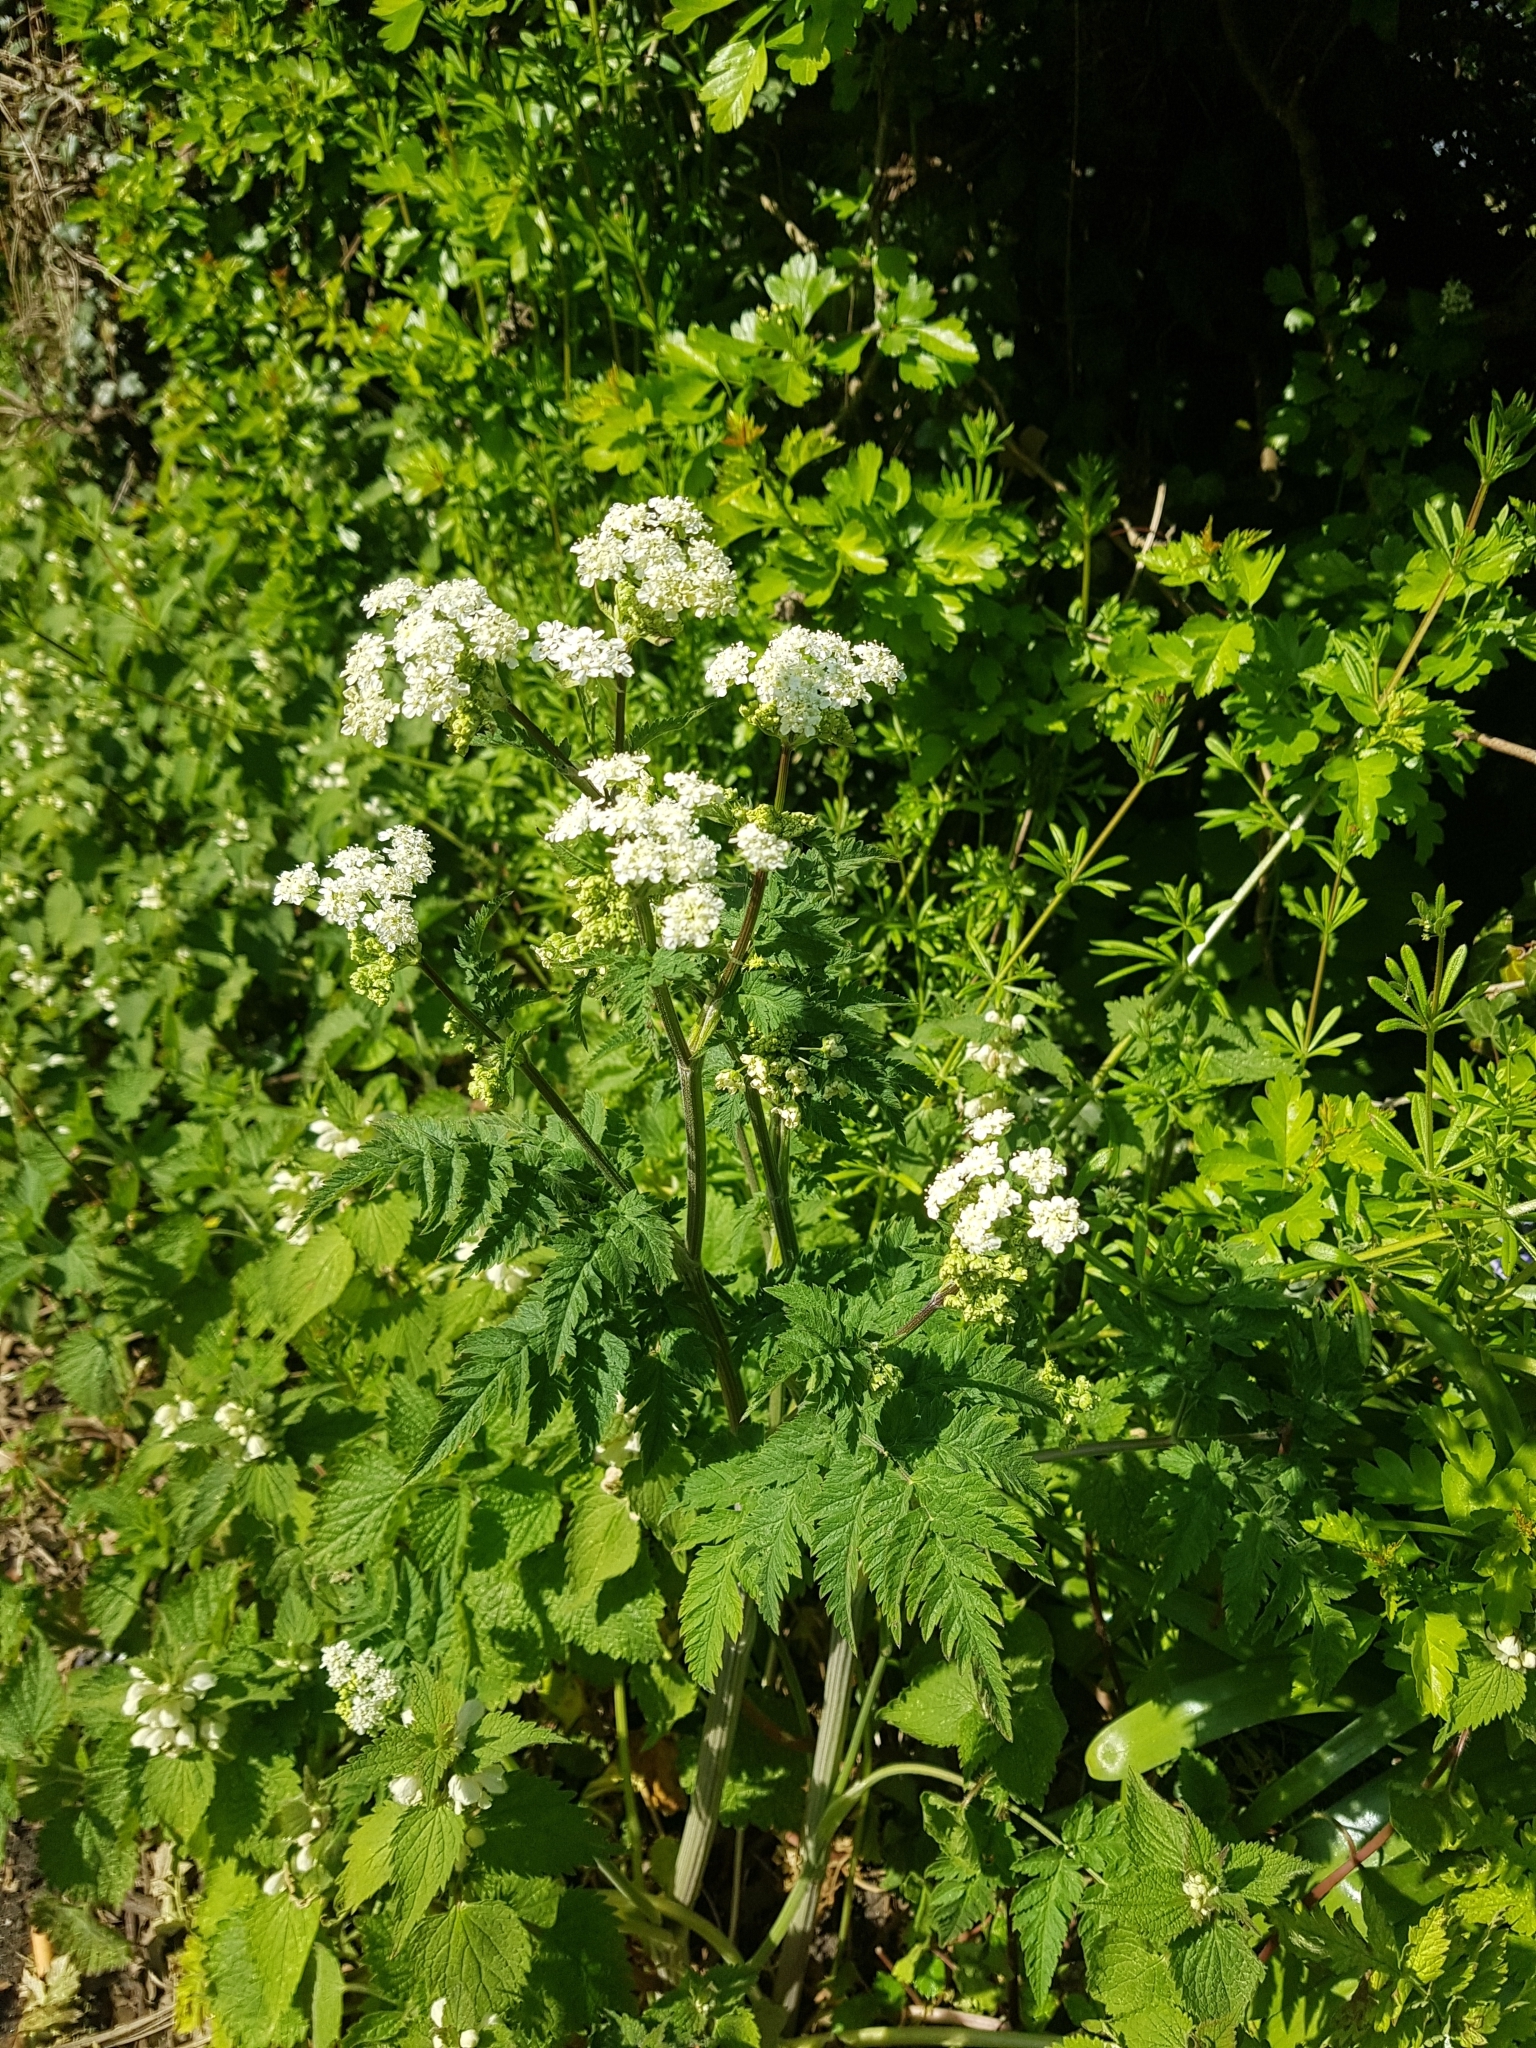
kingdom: Plantae
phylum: Tracheophyta
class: Magnoliopsida
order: Apiales
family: Apiaceae
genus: Anthriscus
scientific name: Anthriscus sylvestris
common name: Cow parsley
